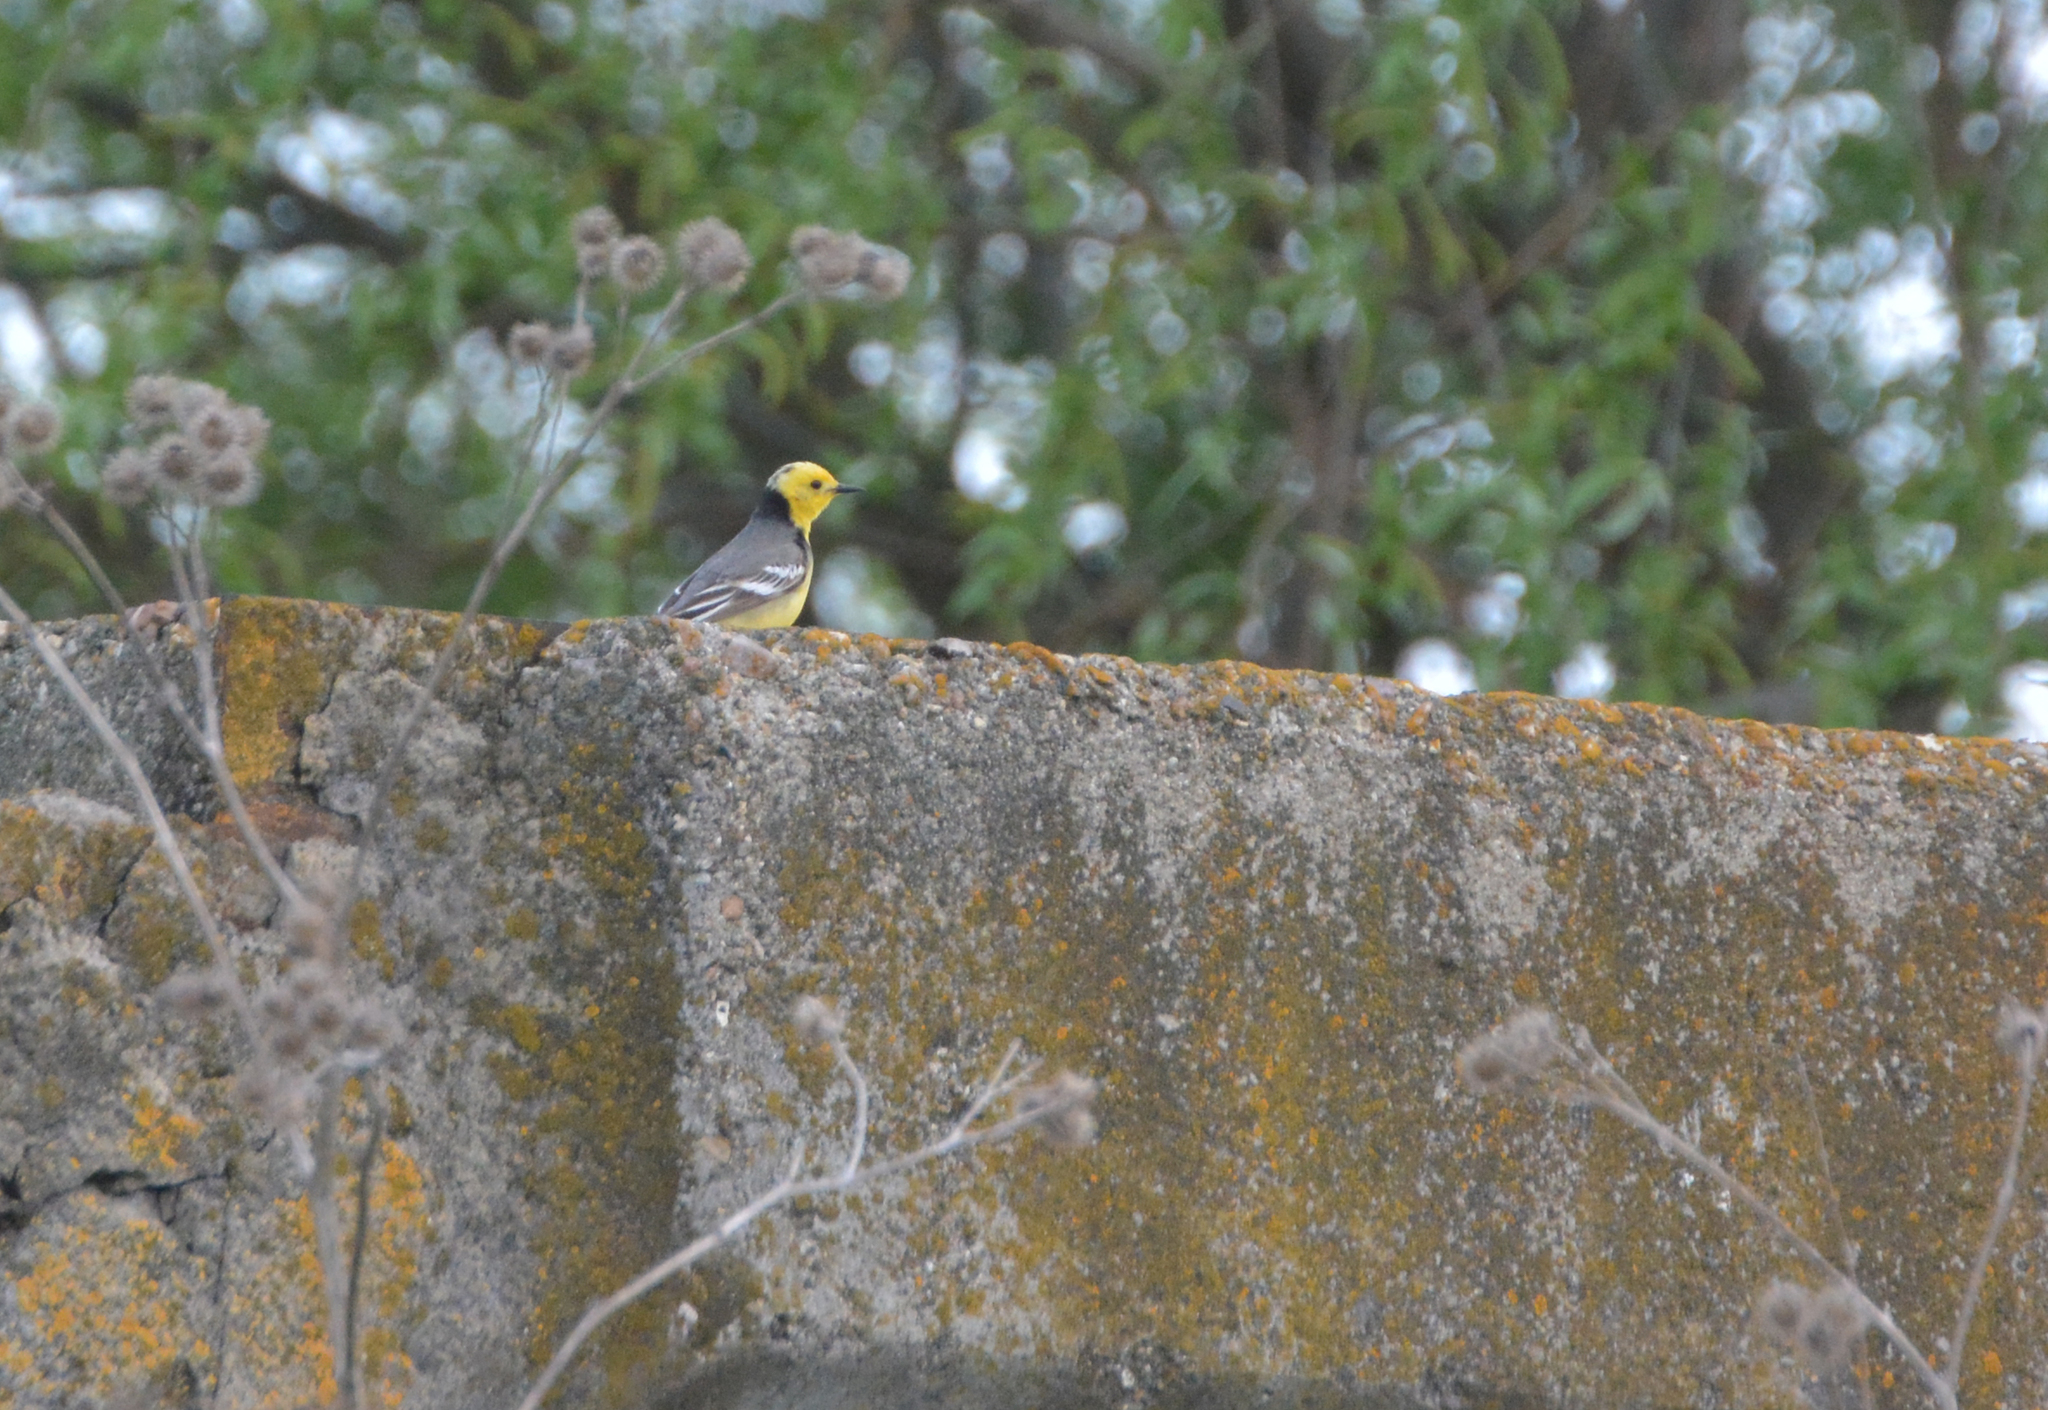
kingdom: Animalia
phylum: Chordata
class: Aves
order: Passeriformes
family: Motacillidae
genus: Motacilla
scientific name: Motacilla citreola
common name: Citrine wagtail
